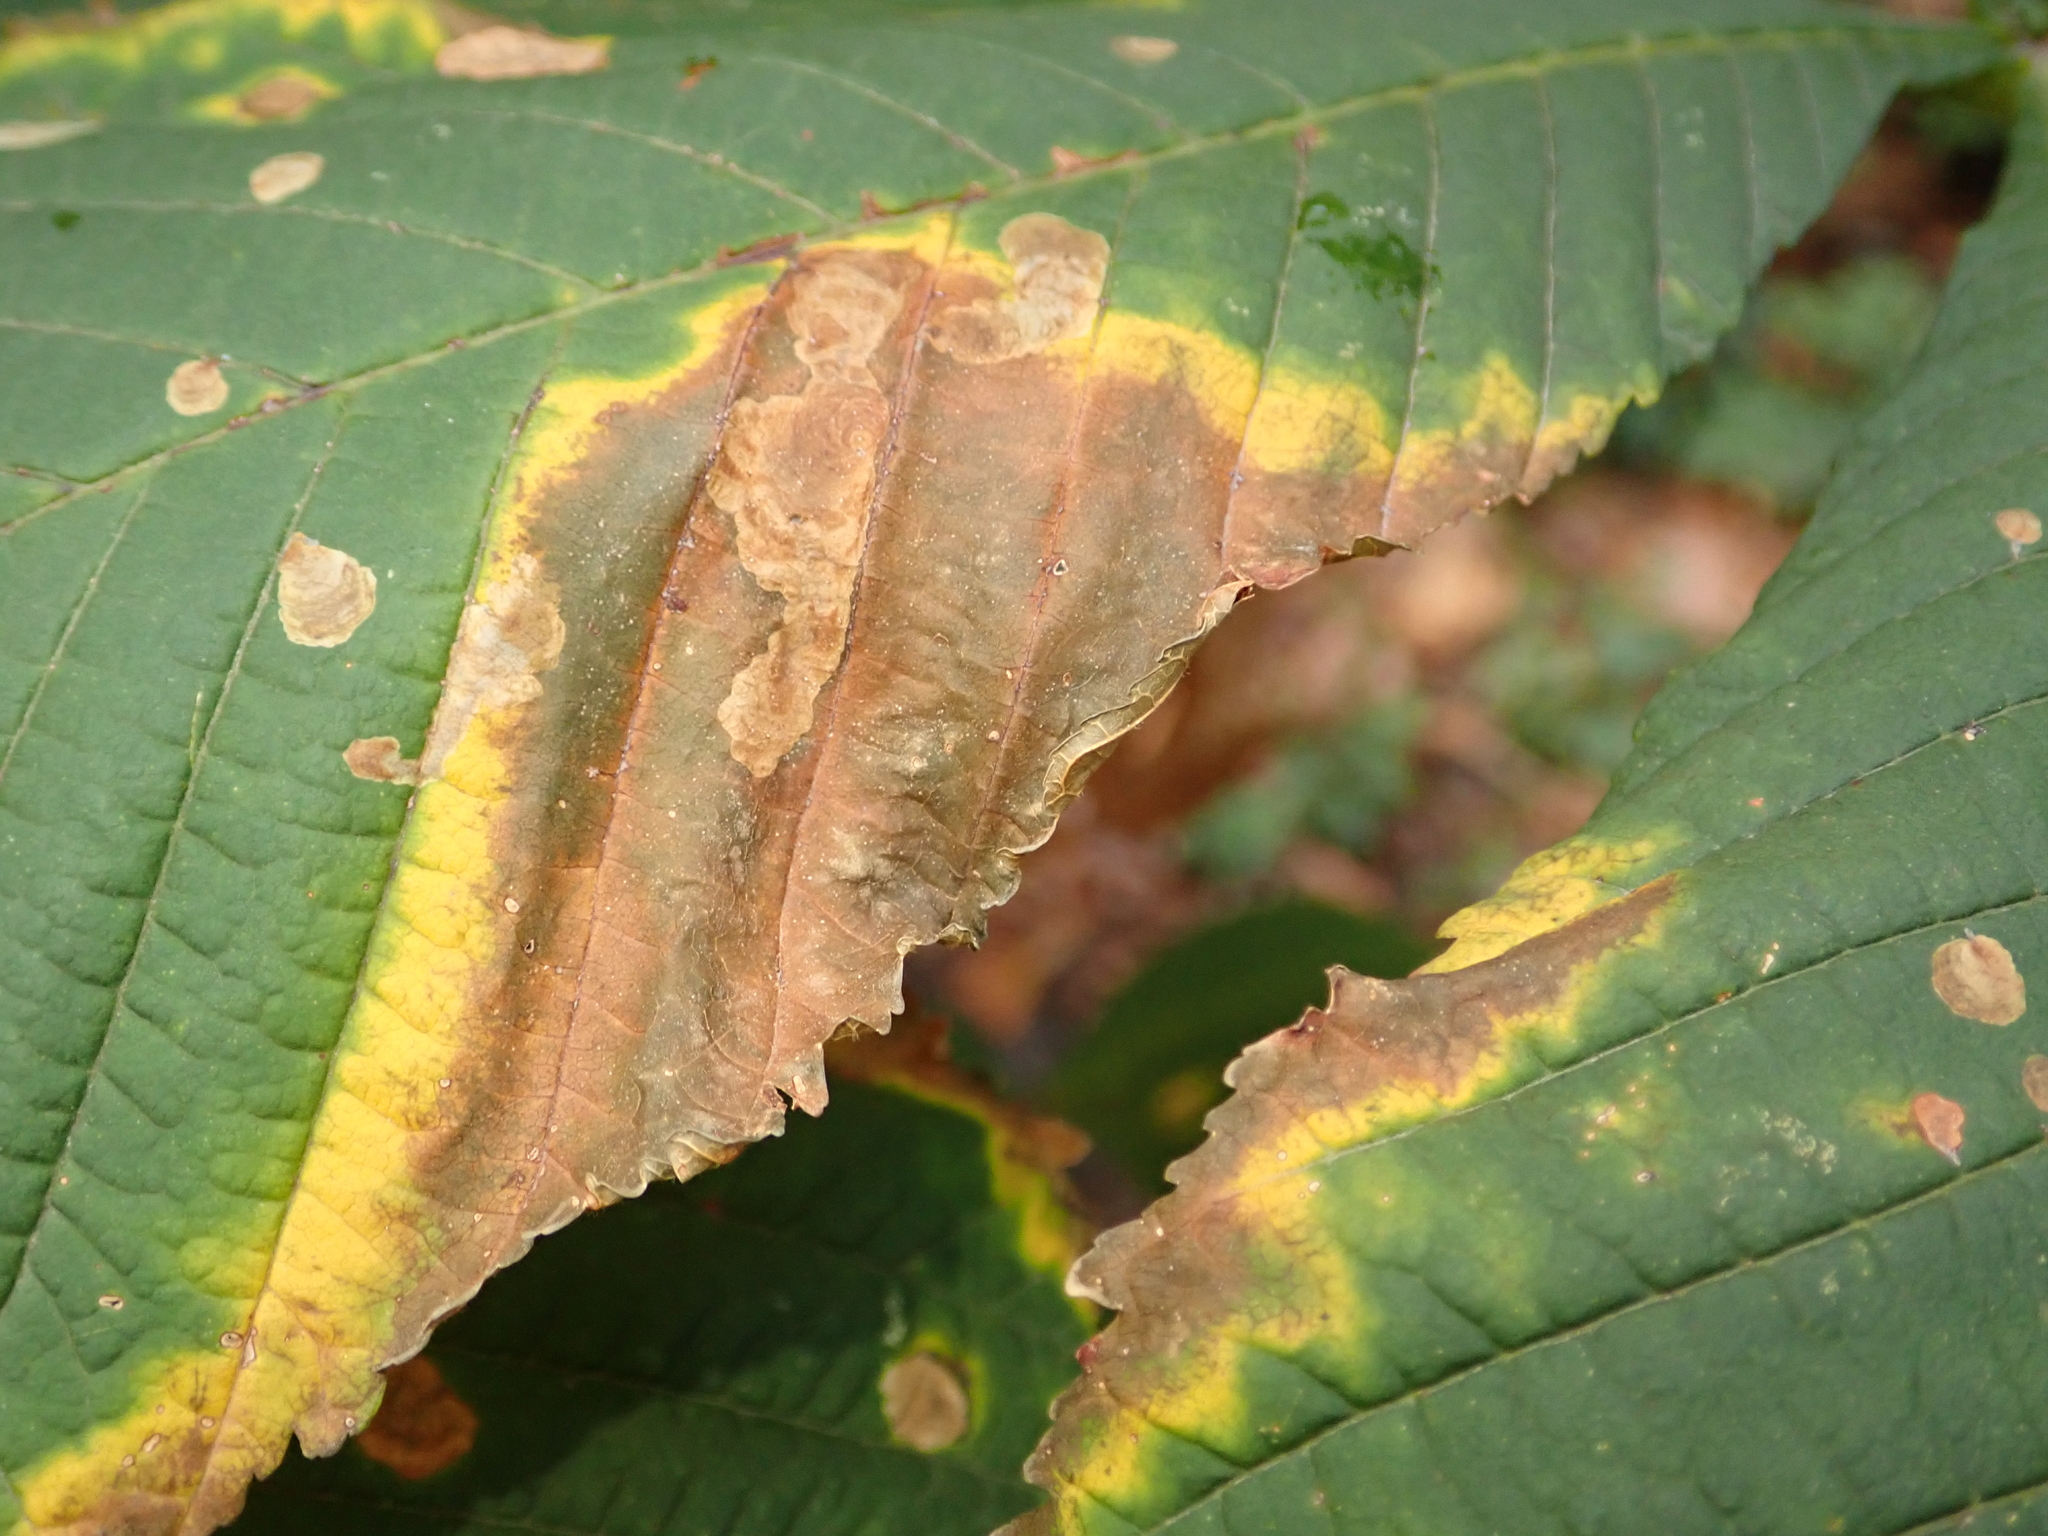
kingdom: Animalia
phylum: Arthropoda
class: Insecta
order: Lepidoptera
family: Gracillariidae
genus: Cameraria
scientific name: Cameraria ohridella
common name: Horse-chestnut leaf-miner
